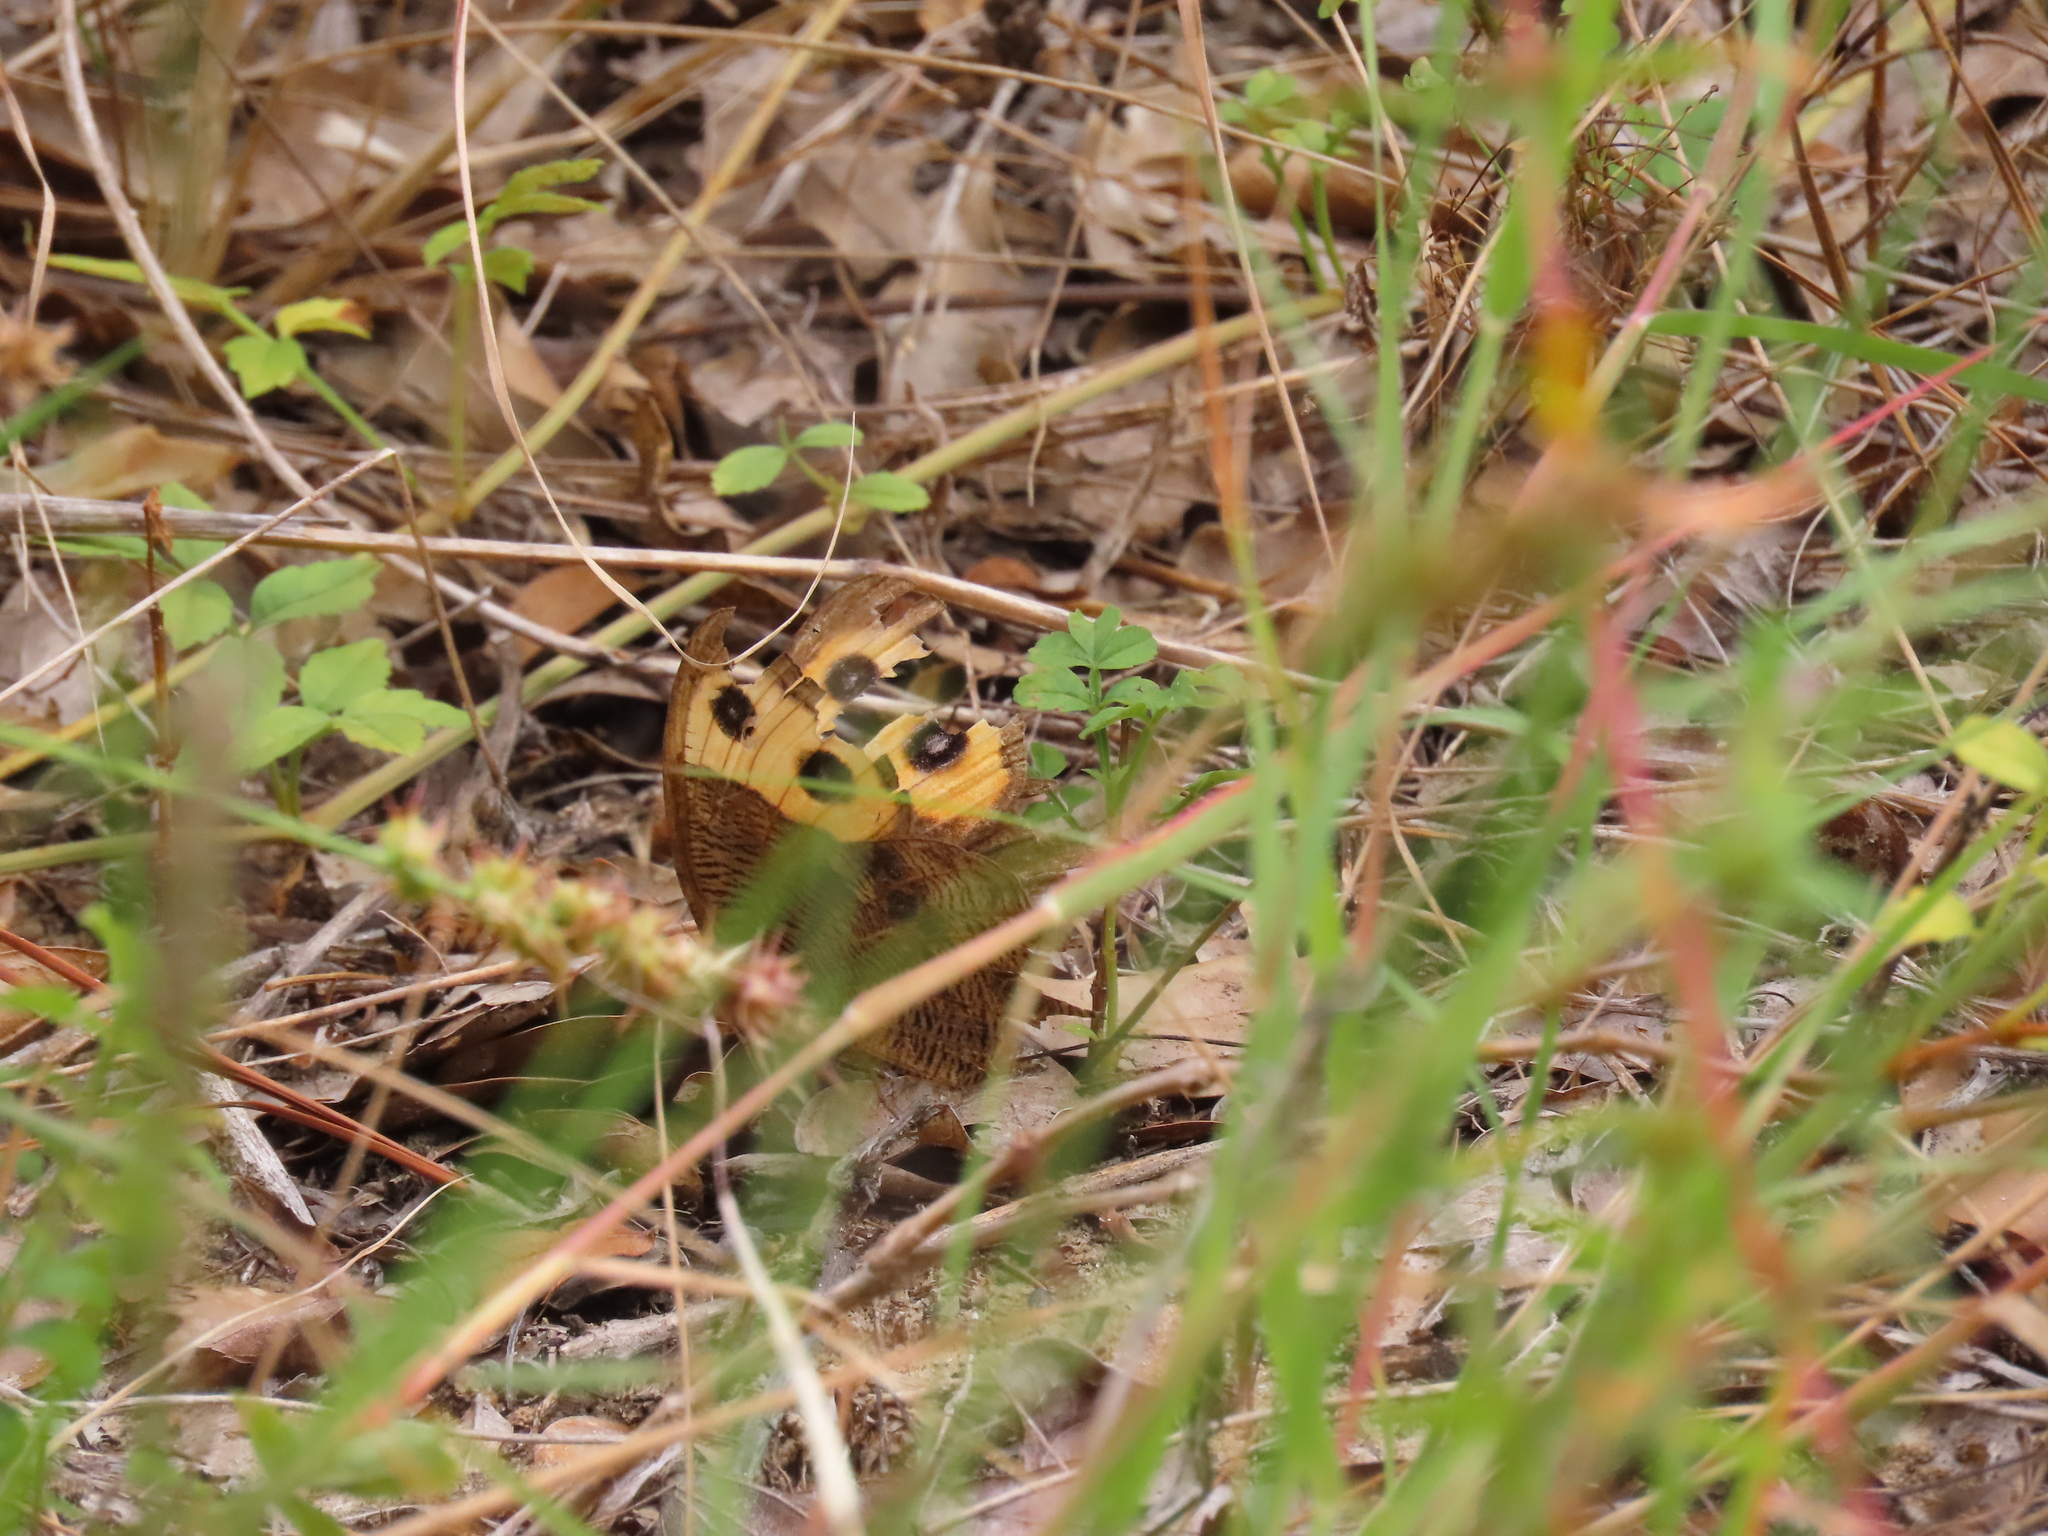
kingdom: Animalia
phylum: Arthropoda
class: Insecta
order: Lepidoptera
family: Nymphalidae
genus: Cercyonis
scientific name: Cercyonis pegala
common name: Common wood-nymph
